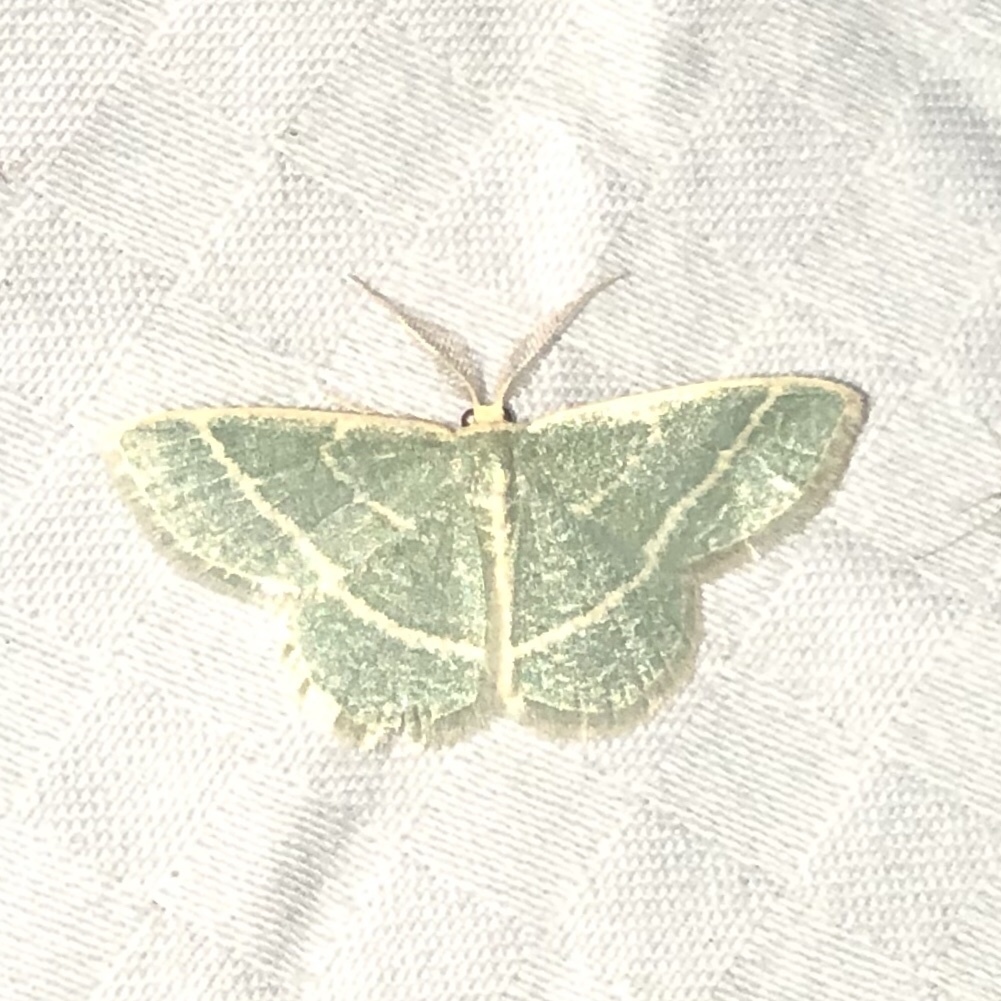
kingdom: Animalia
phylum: Arthropoda
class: Insecta
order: Lepidoptera
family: Geometridae
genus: Chlorochlamys
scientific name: Chlorochlamys chloroleucaria
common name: Blackberry looper
